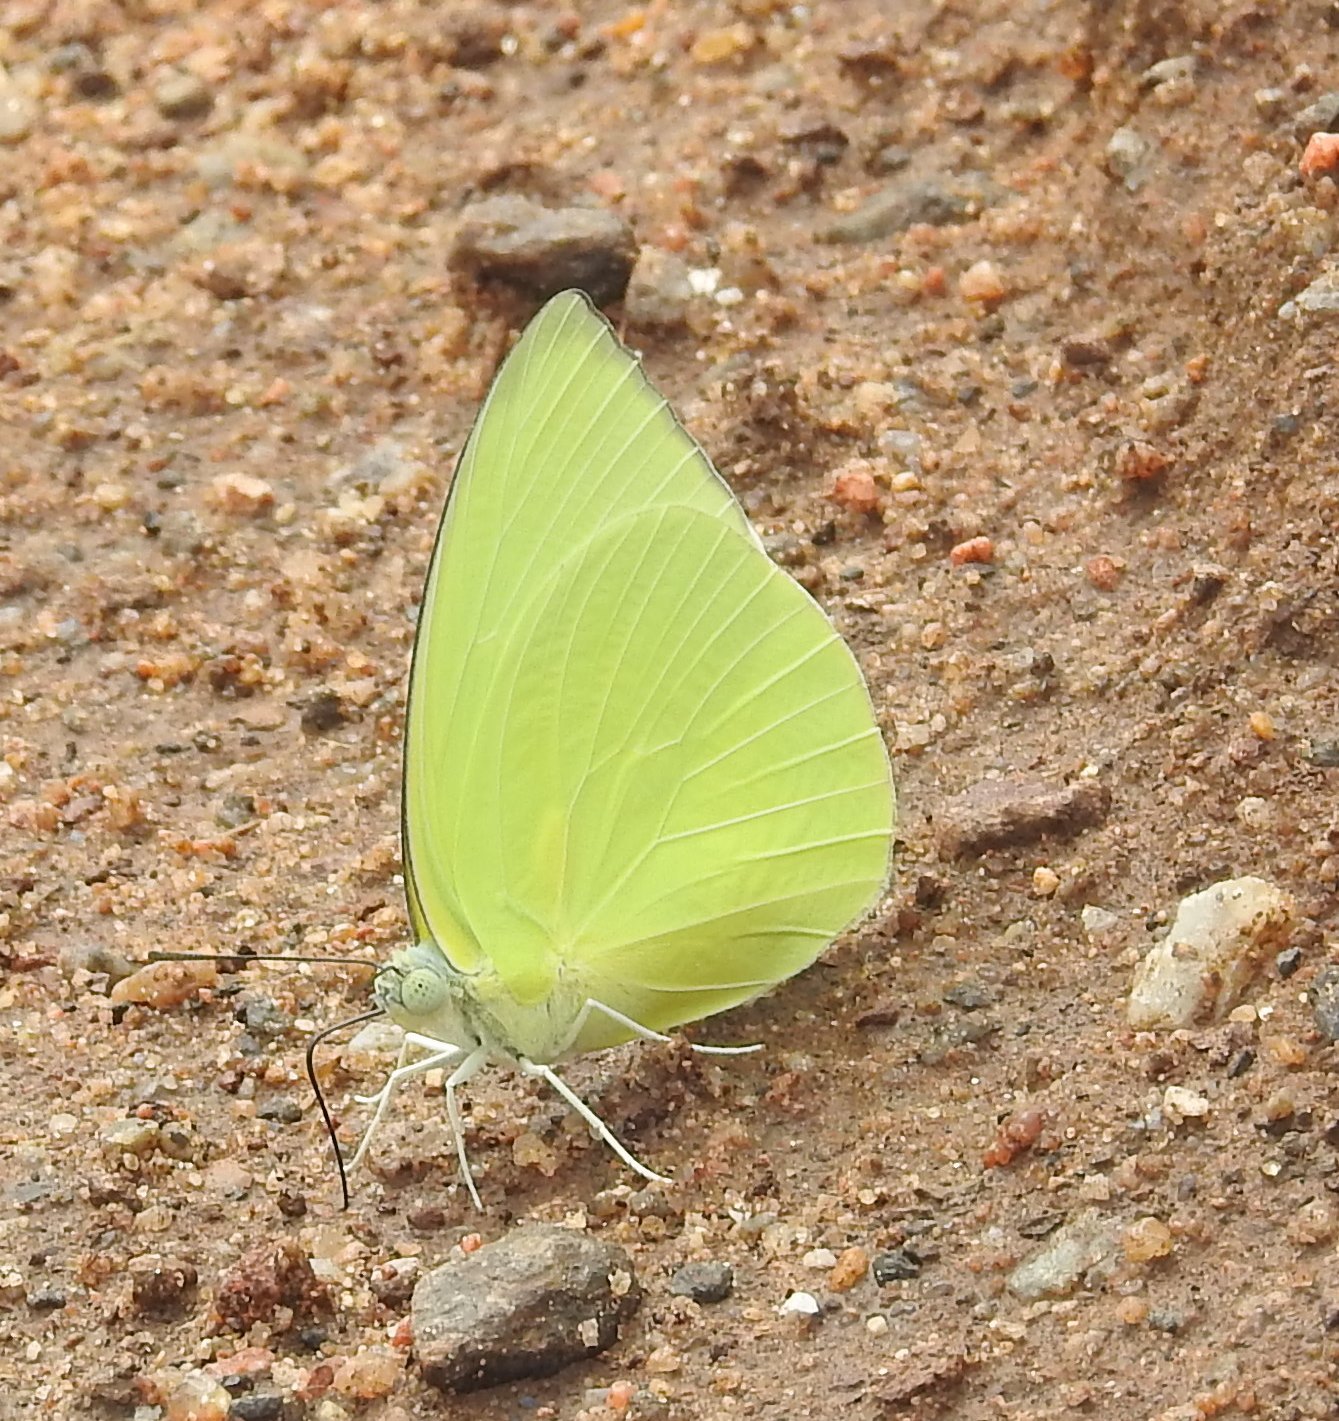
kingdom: Animalia
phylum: Arthropoda
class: Insecta
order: Lepidoptera
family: Pieridae
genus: Catopsilia
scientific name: Catopsilia pomona
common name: Common emigrant
